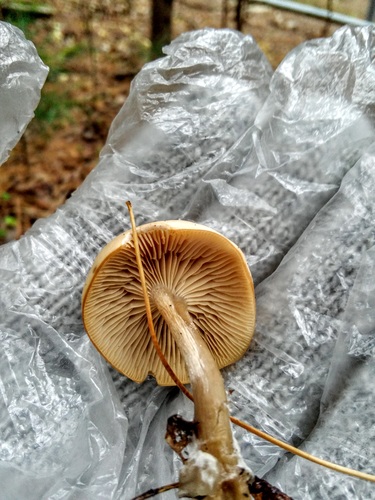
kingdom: Fungi
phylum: Basidiomycota
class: Agaricomycetes
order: Agaricales
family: Tricholomataceae
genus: Clitocybe
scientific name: Clitocybe
